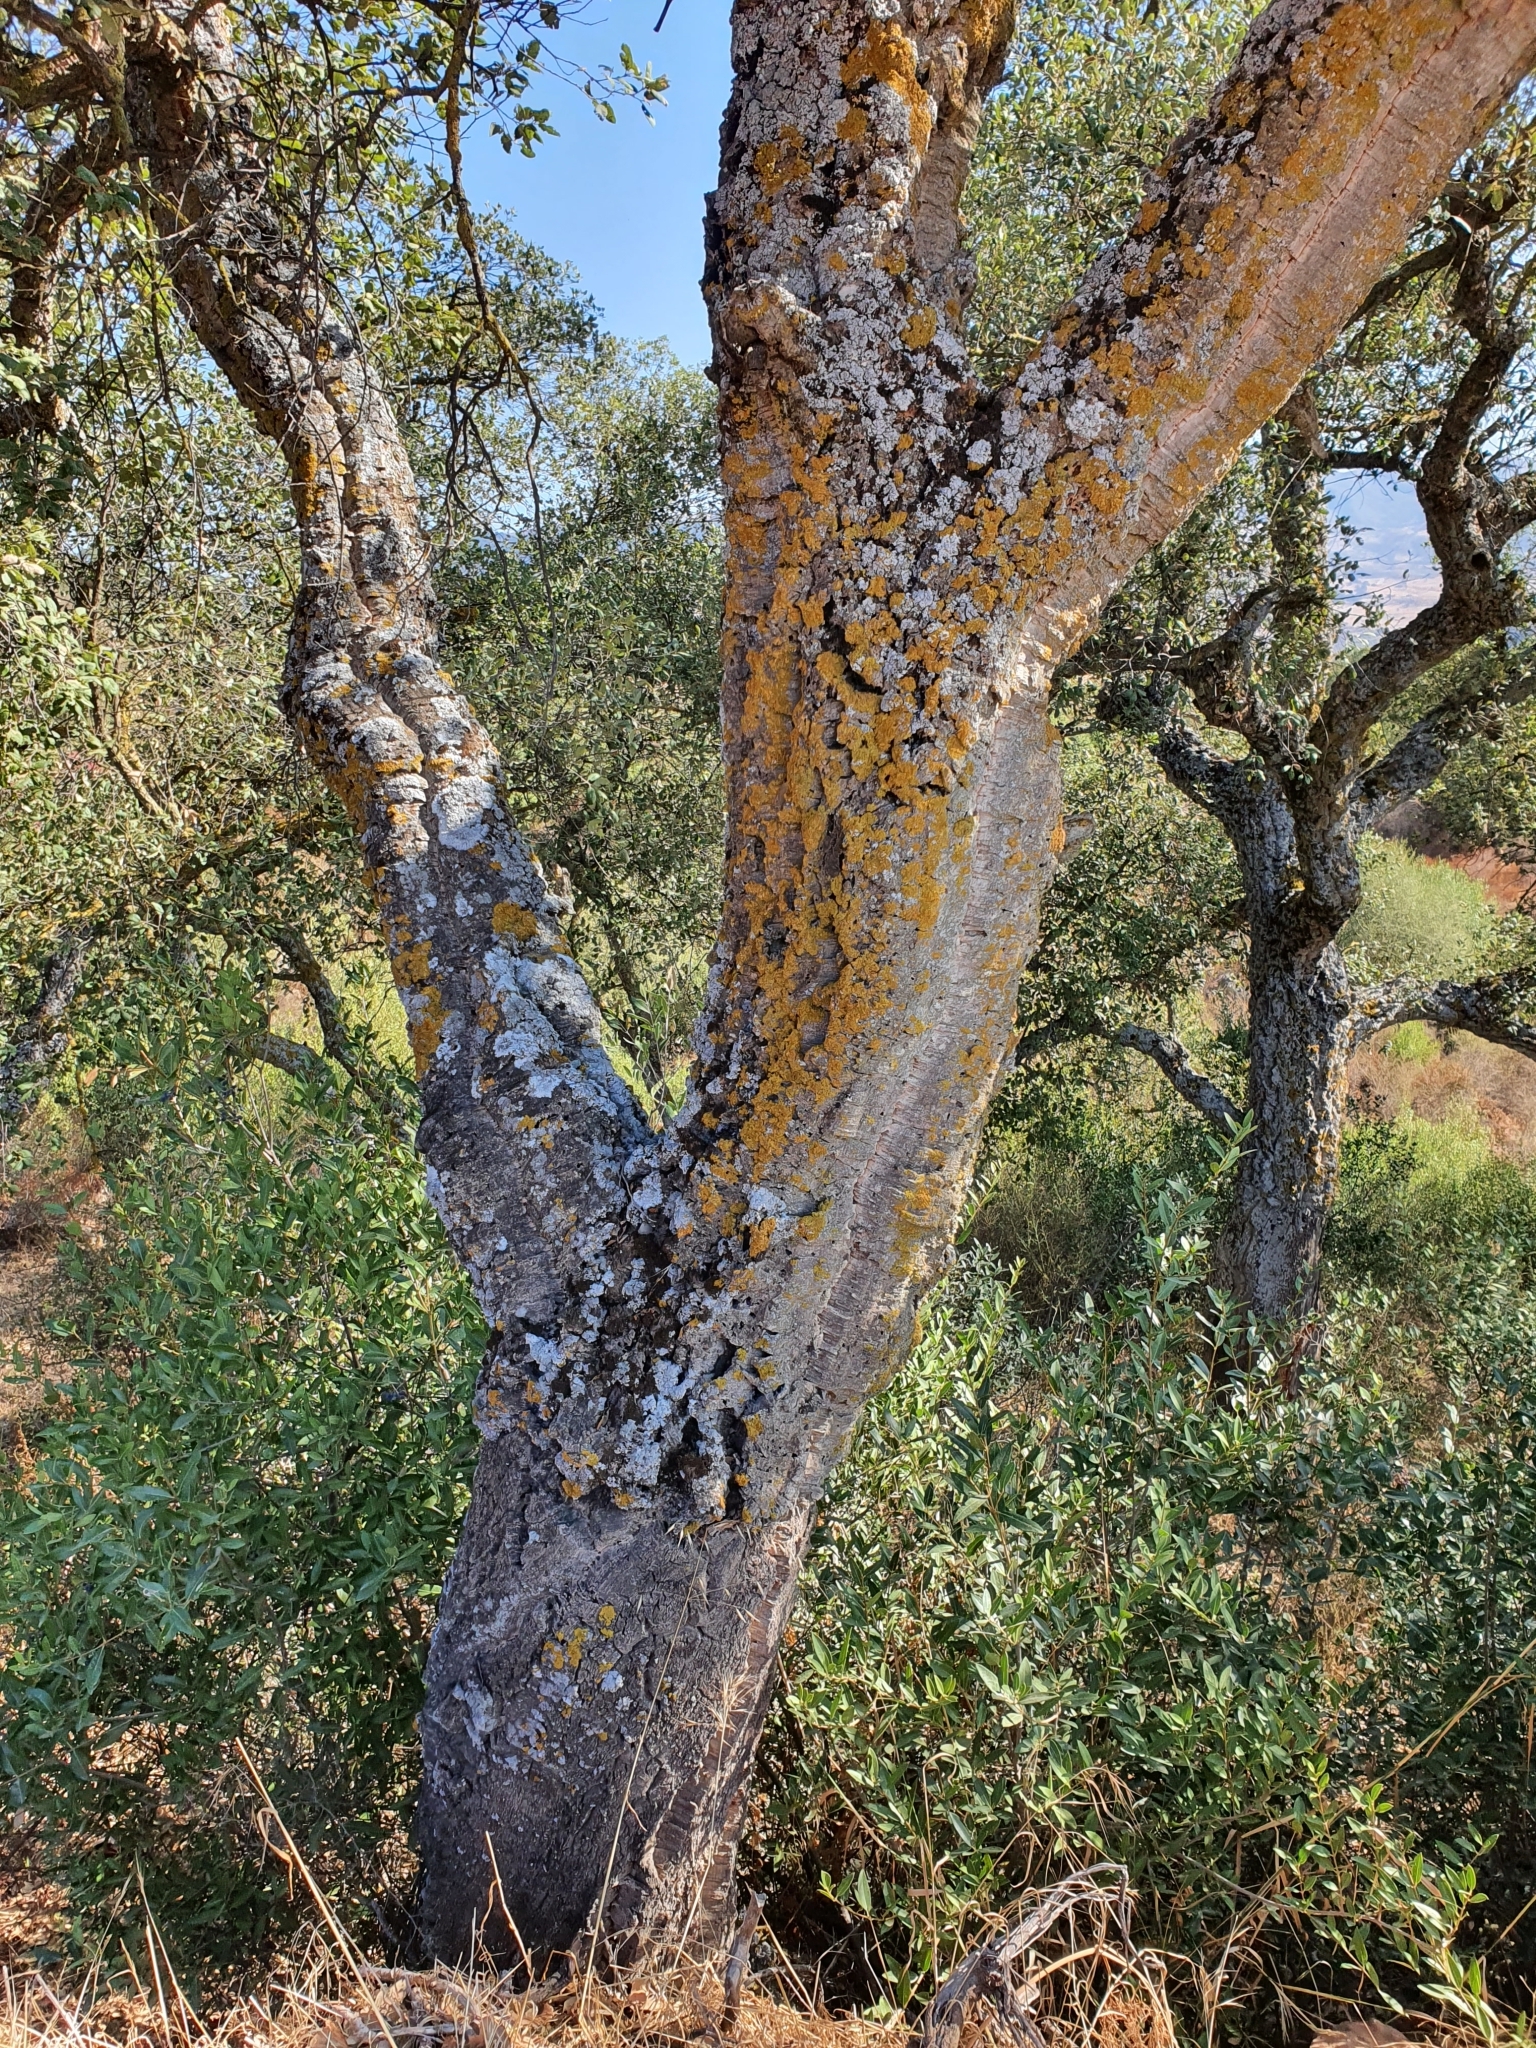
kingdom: Plantae
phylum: Tracheophyta
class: Magnoliopsida
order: Fagales
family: Fagaceae
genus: Quercus
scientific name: Quercus suber
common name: Cork oak
